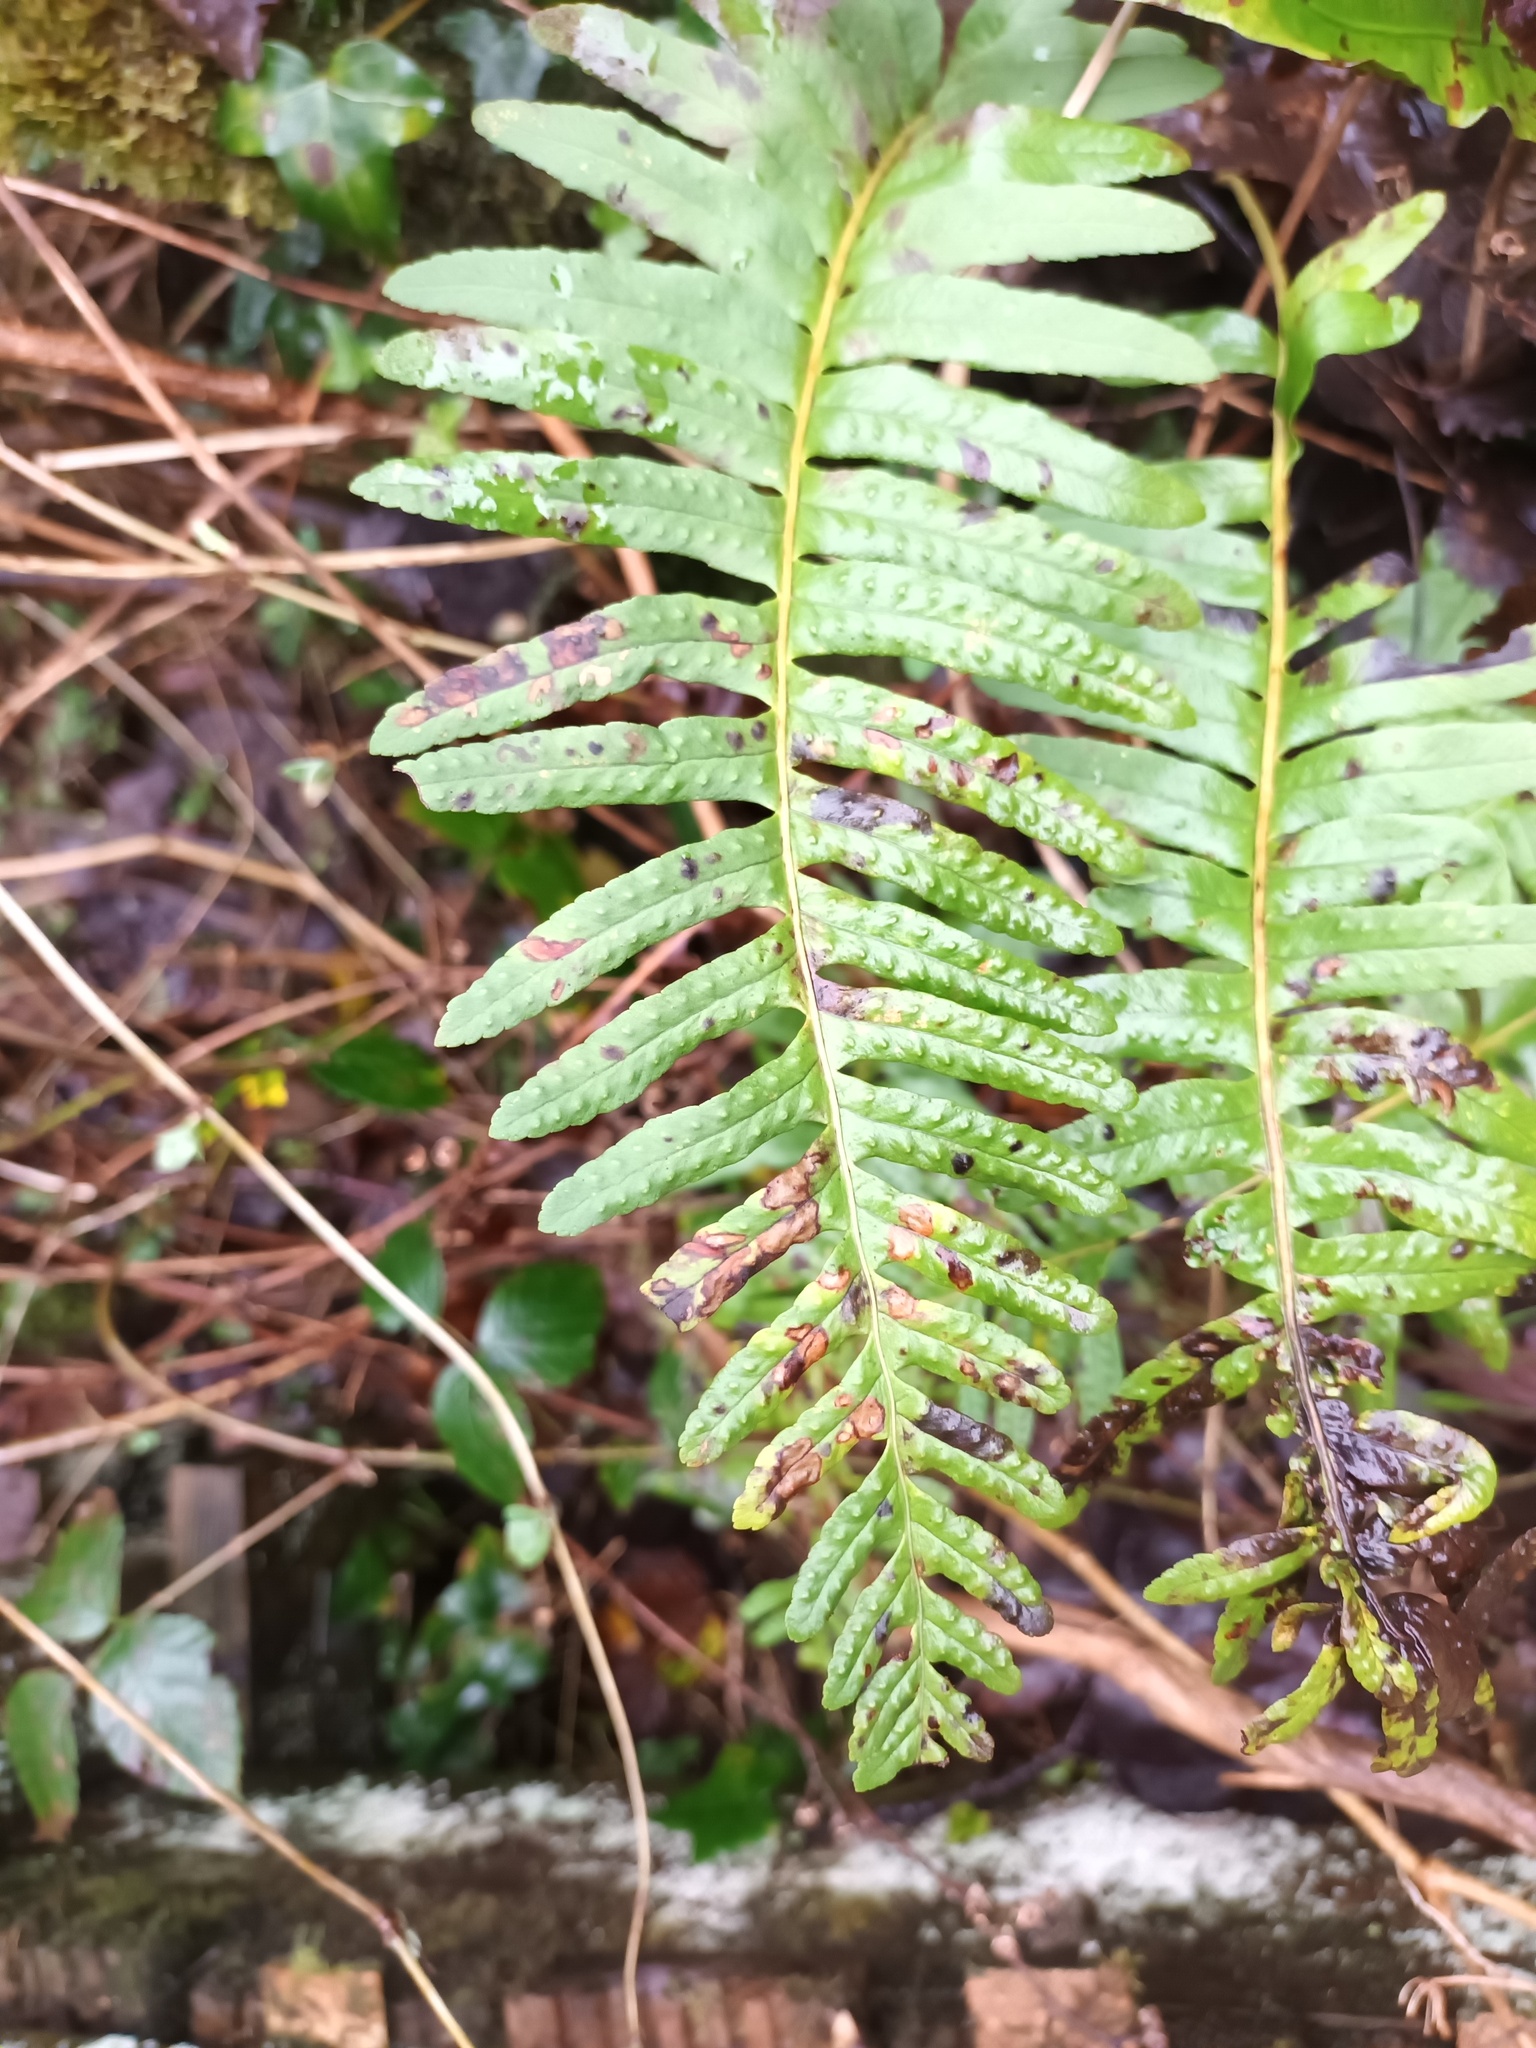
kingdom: Plantae
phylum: Tracheophyta
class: Polypodiopsida
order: Polypodiales
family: Polypodiaceae
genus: Polypodium
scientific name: Polypodium
